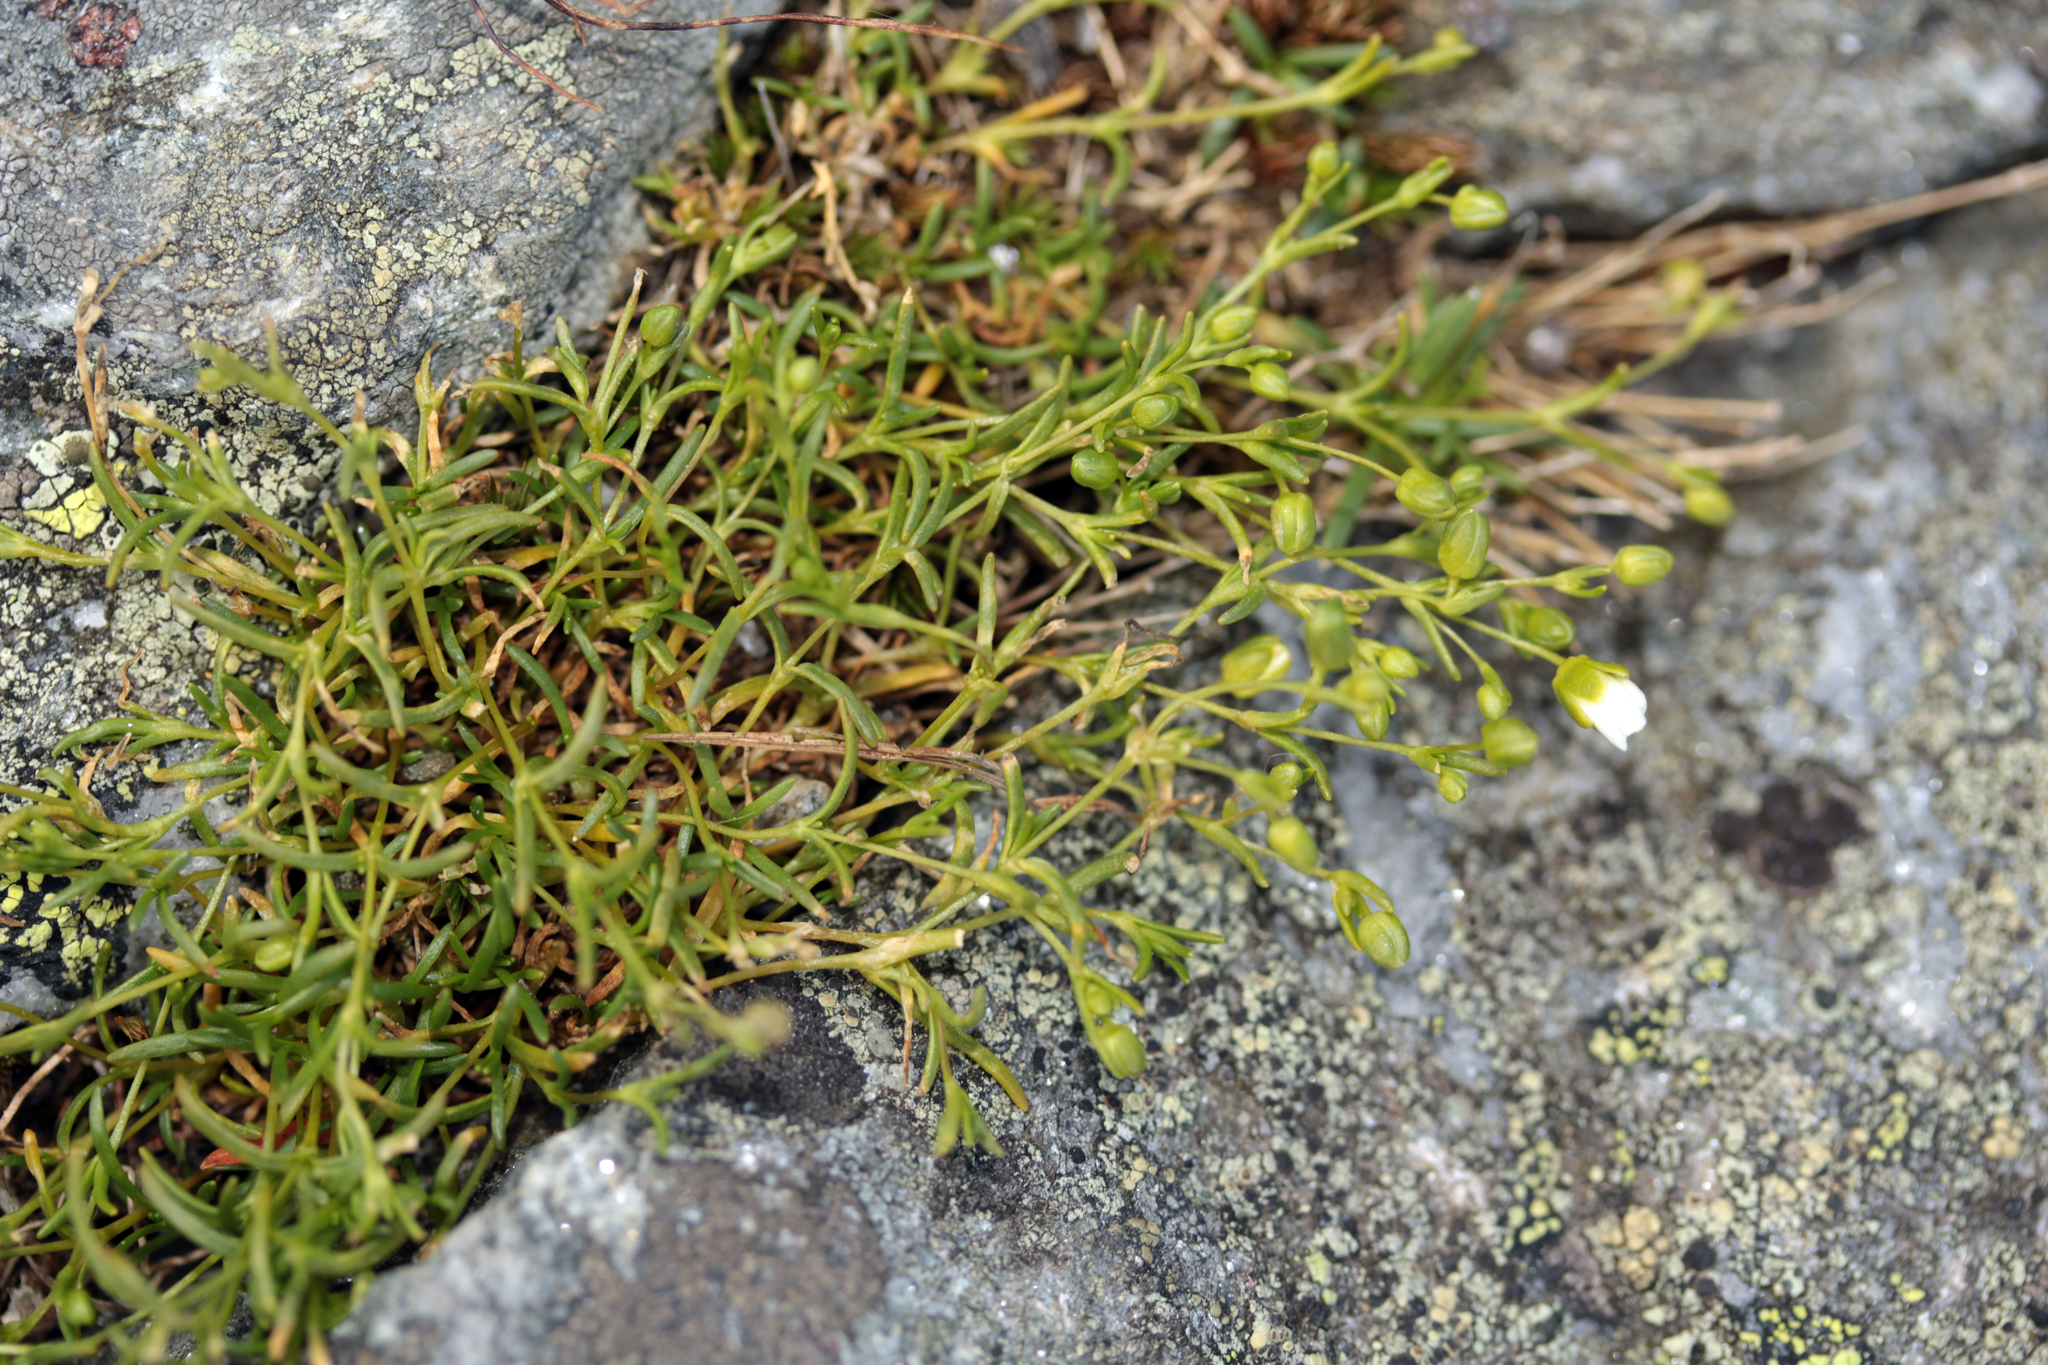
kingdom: Plantae
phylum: Tracheophyta
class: Magnoliopsida
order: Caryophyllales
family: Caryophyllaceae
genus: Geocarpon
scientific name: Geocarpon groenlandicum
